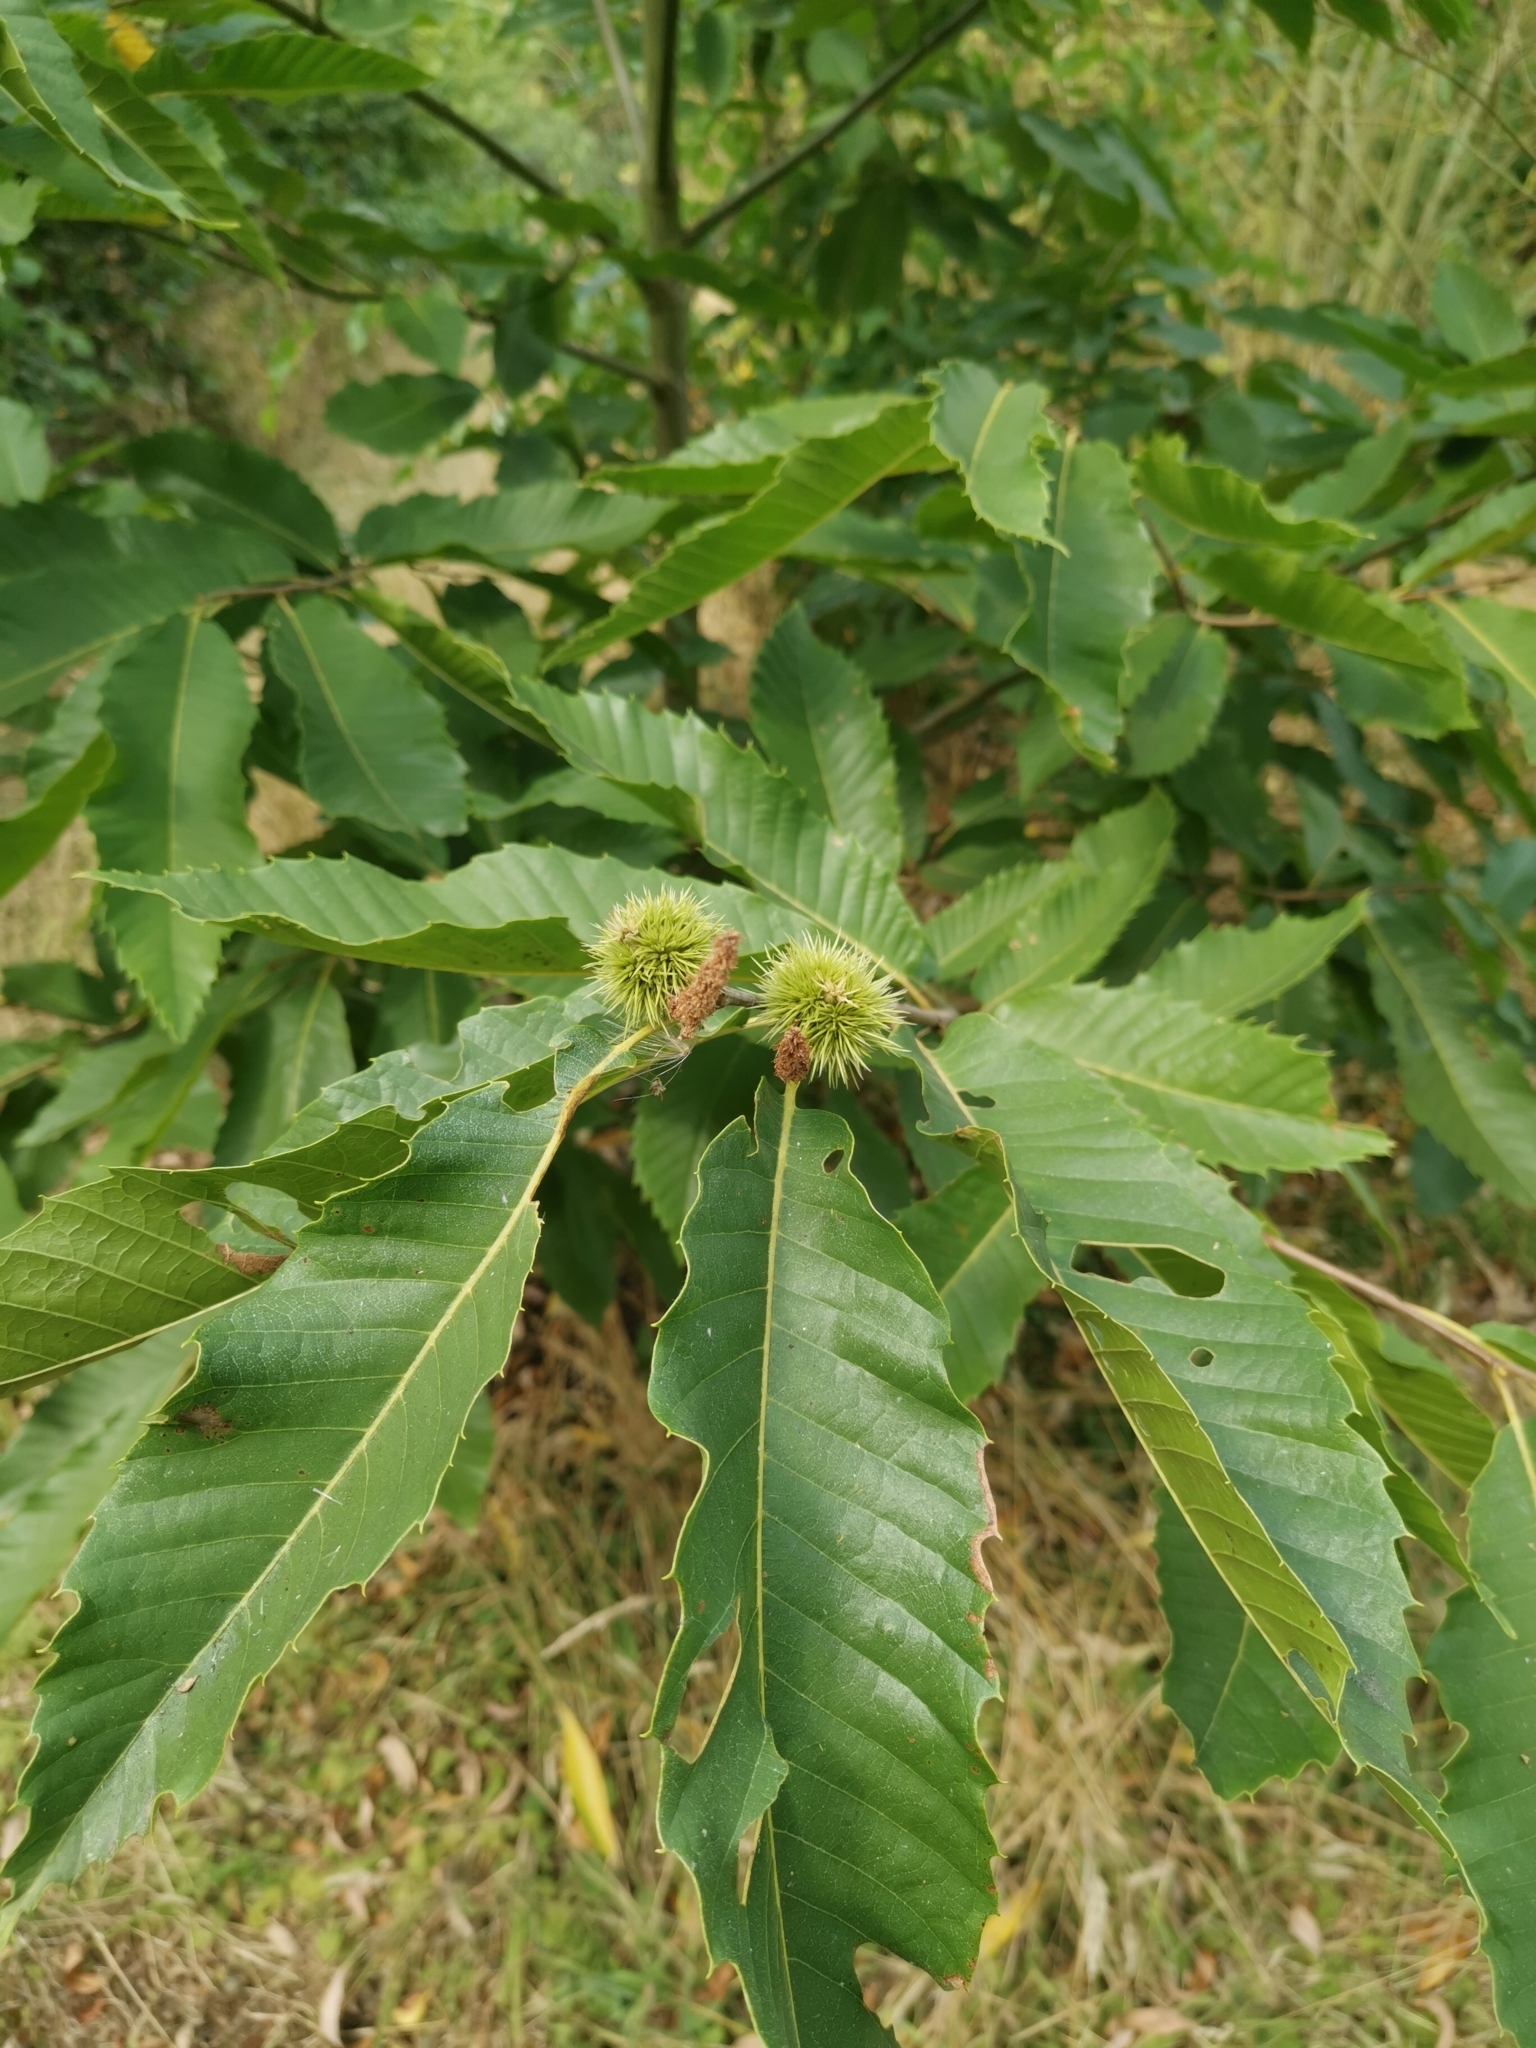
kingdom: Plantae
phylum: Tracheophyta
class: Magnoliopsida
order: Fagales
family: Fagaceae
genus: Castanea
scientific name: Castanea sativa
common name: Sweet chestnut
